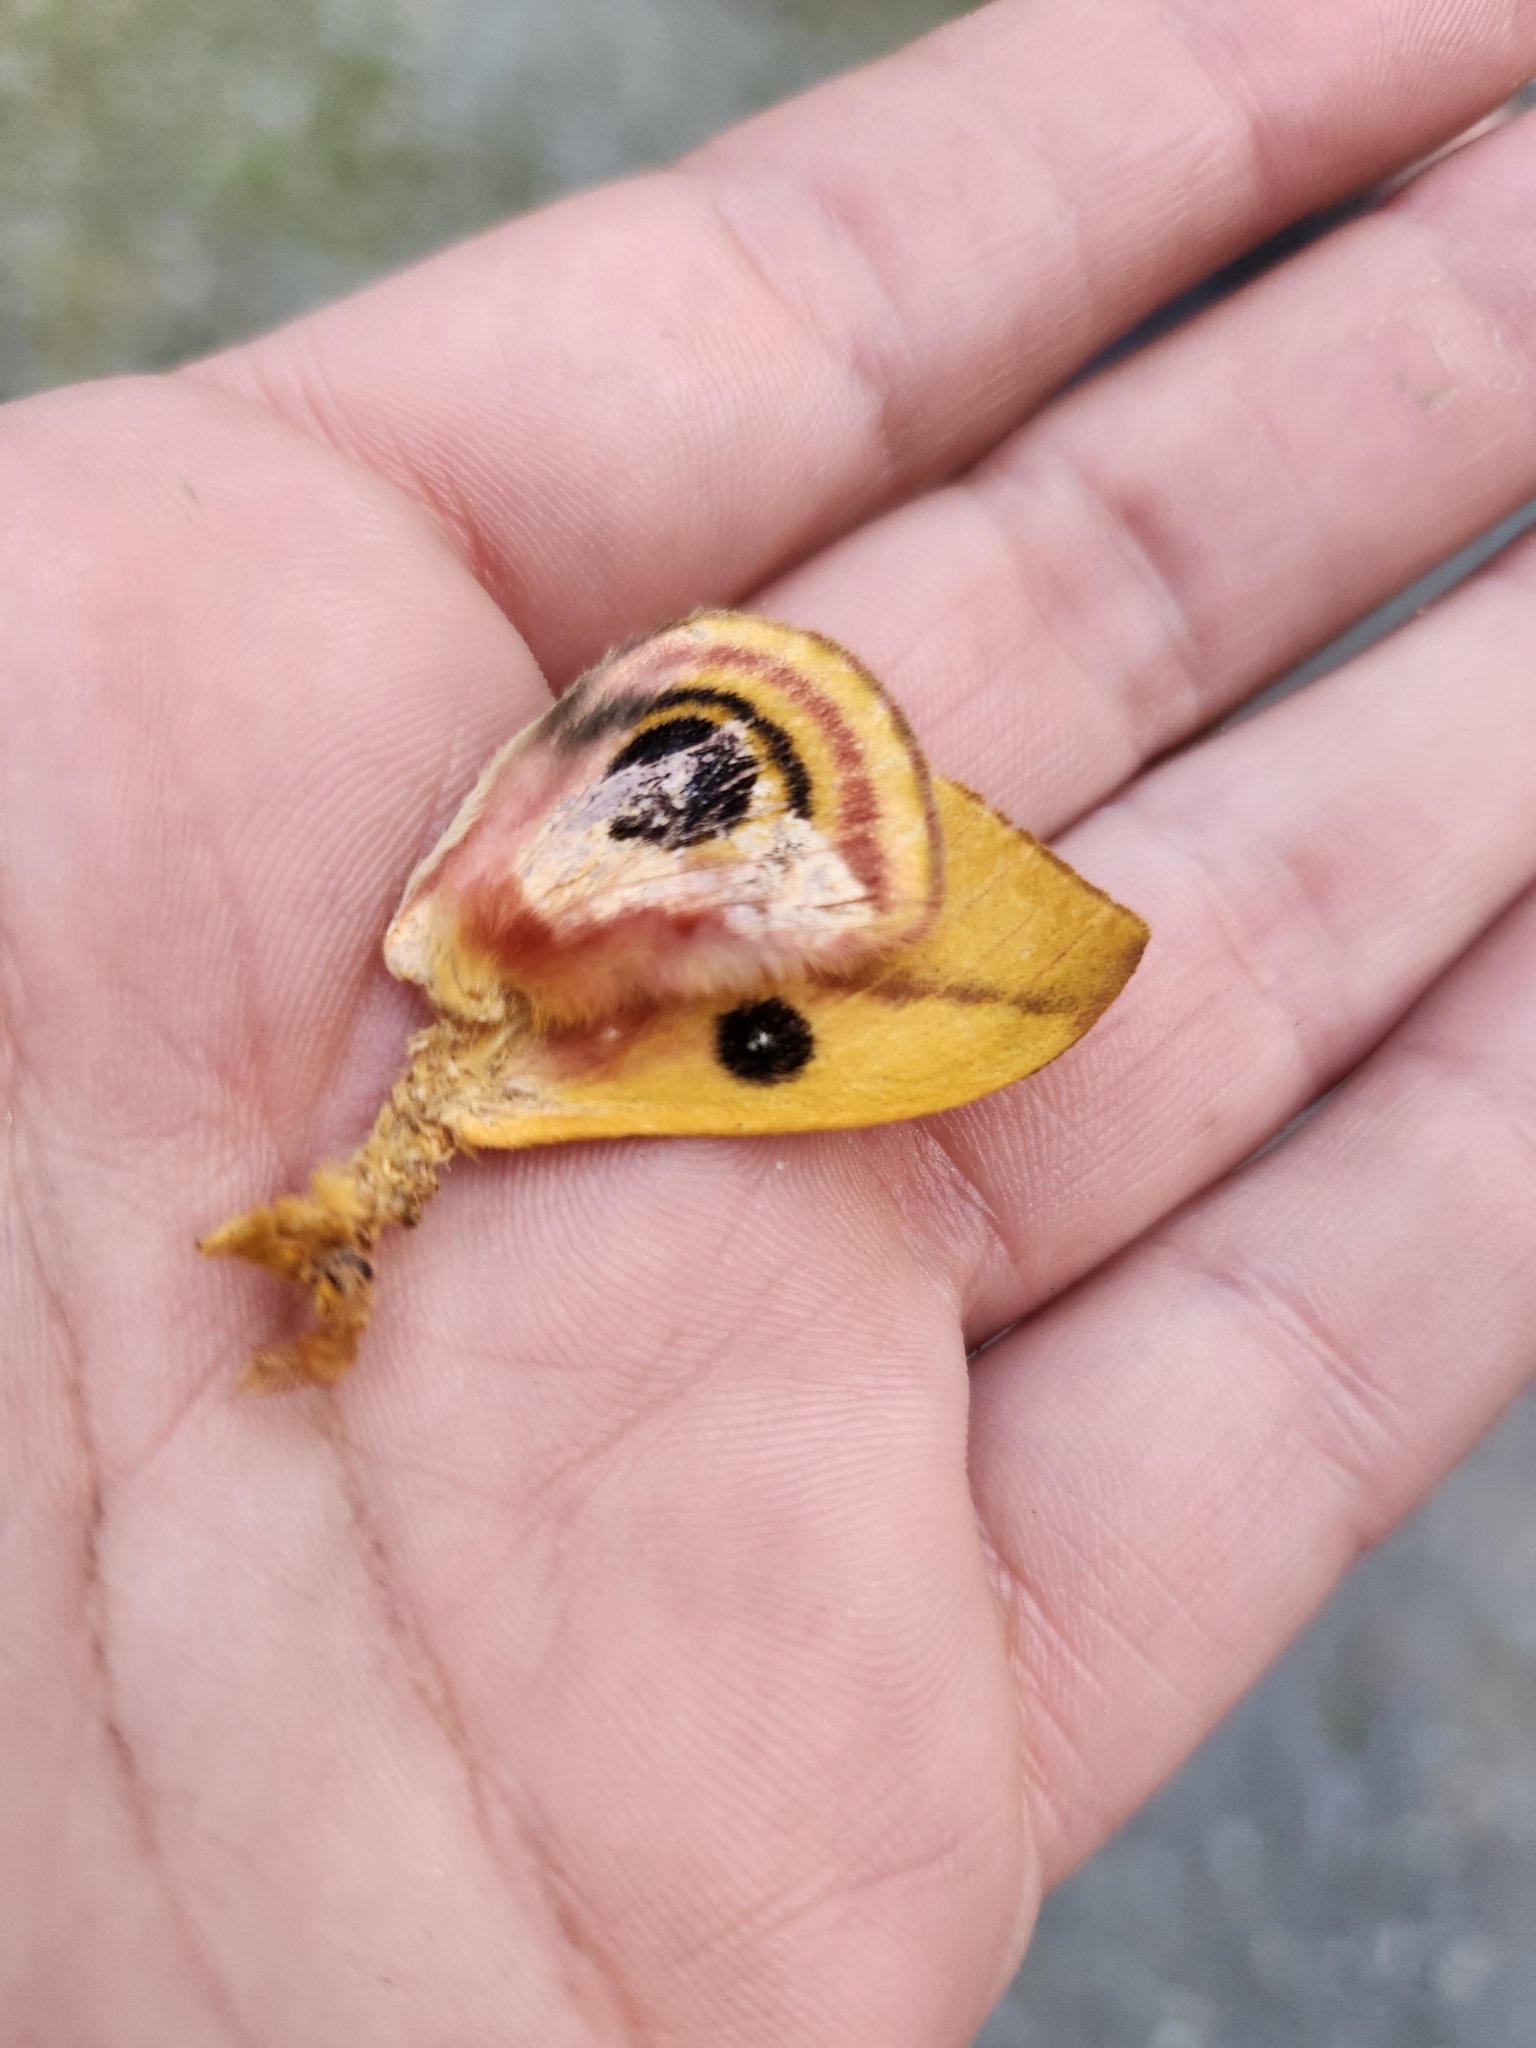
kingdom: Animalia
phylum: Arthropoda
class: Insecta
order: Lepidoptera
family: Saturniidae
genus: Automeris
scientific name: Automeris io
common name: Io moth
